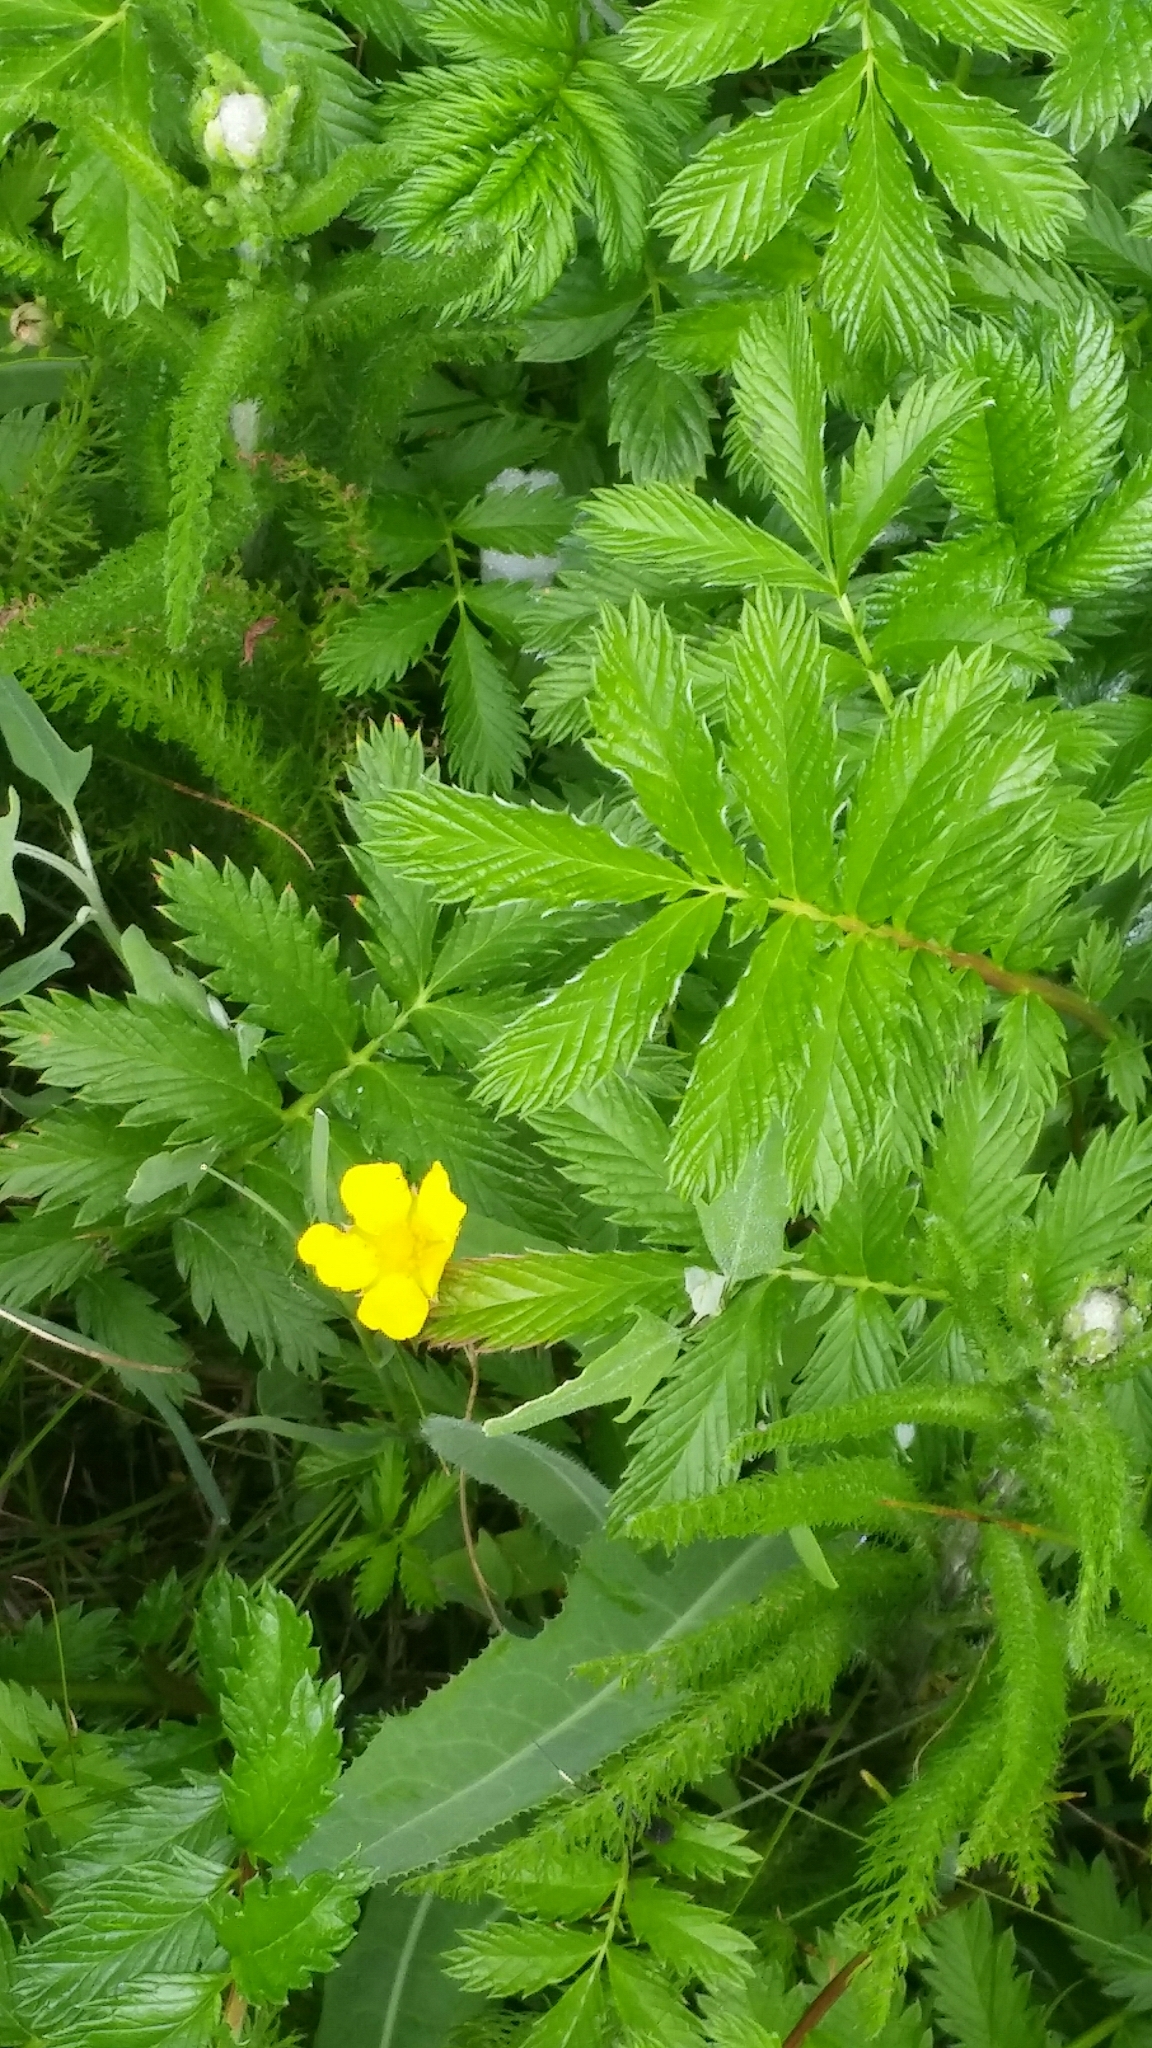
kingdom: Plantae
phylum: Tracheophyta
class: Magnoliopsida
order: Rosales
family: Rosaceae
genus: Argentina
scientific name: Argentina anserina
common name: Common silverweed
